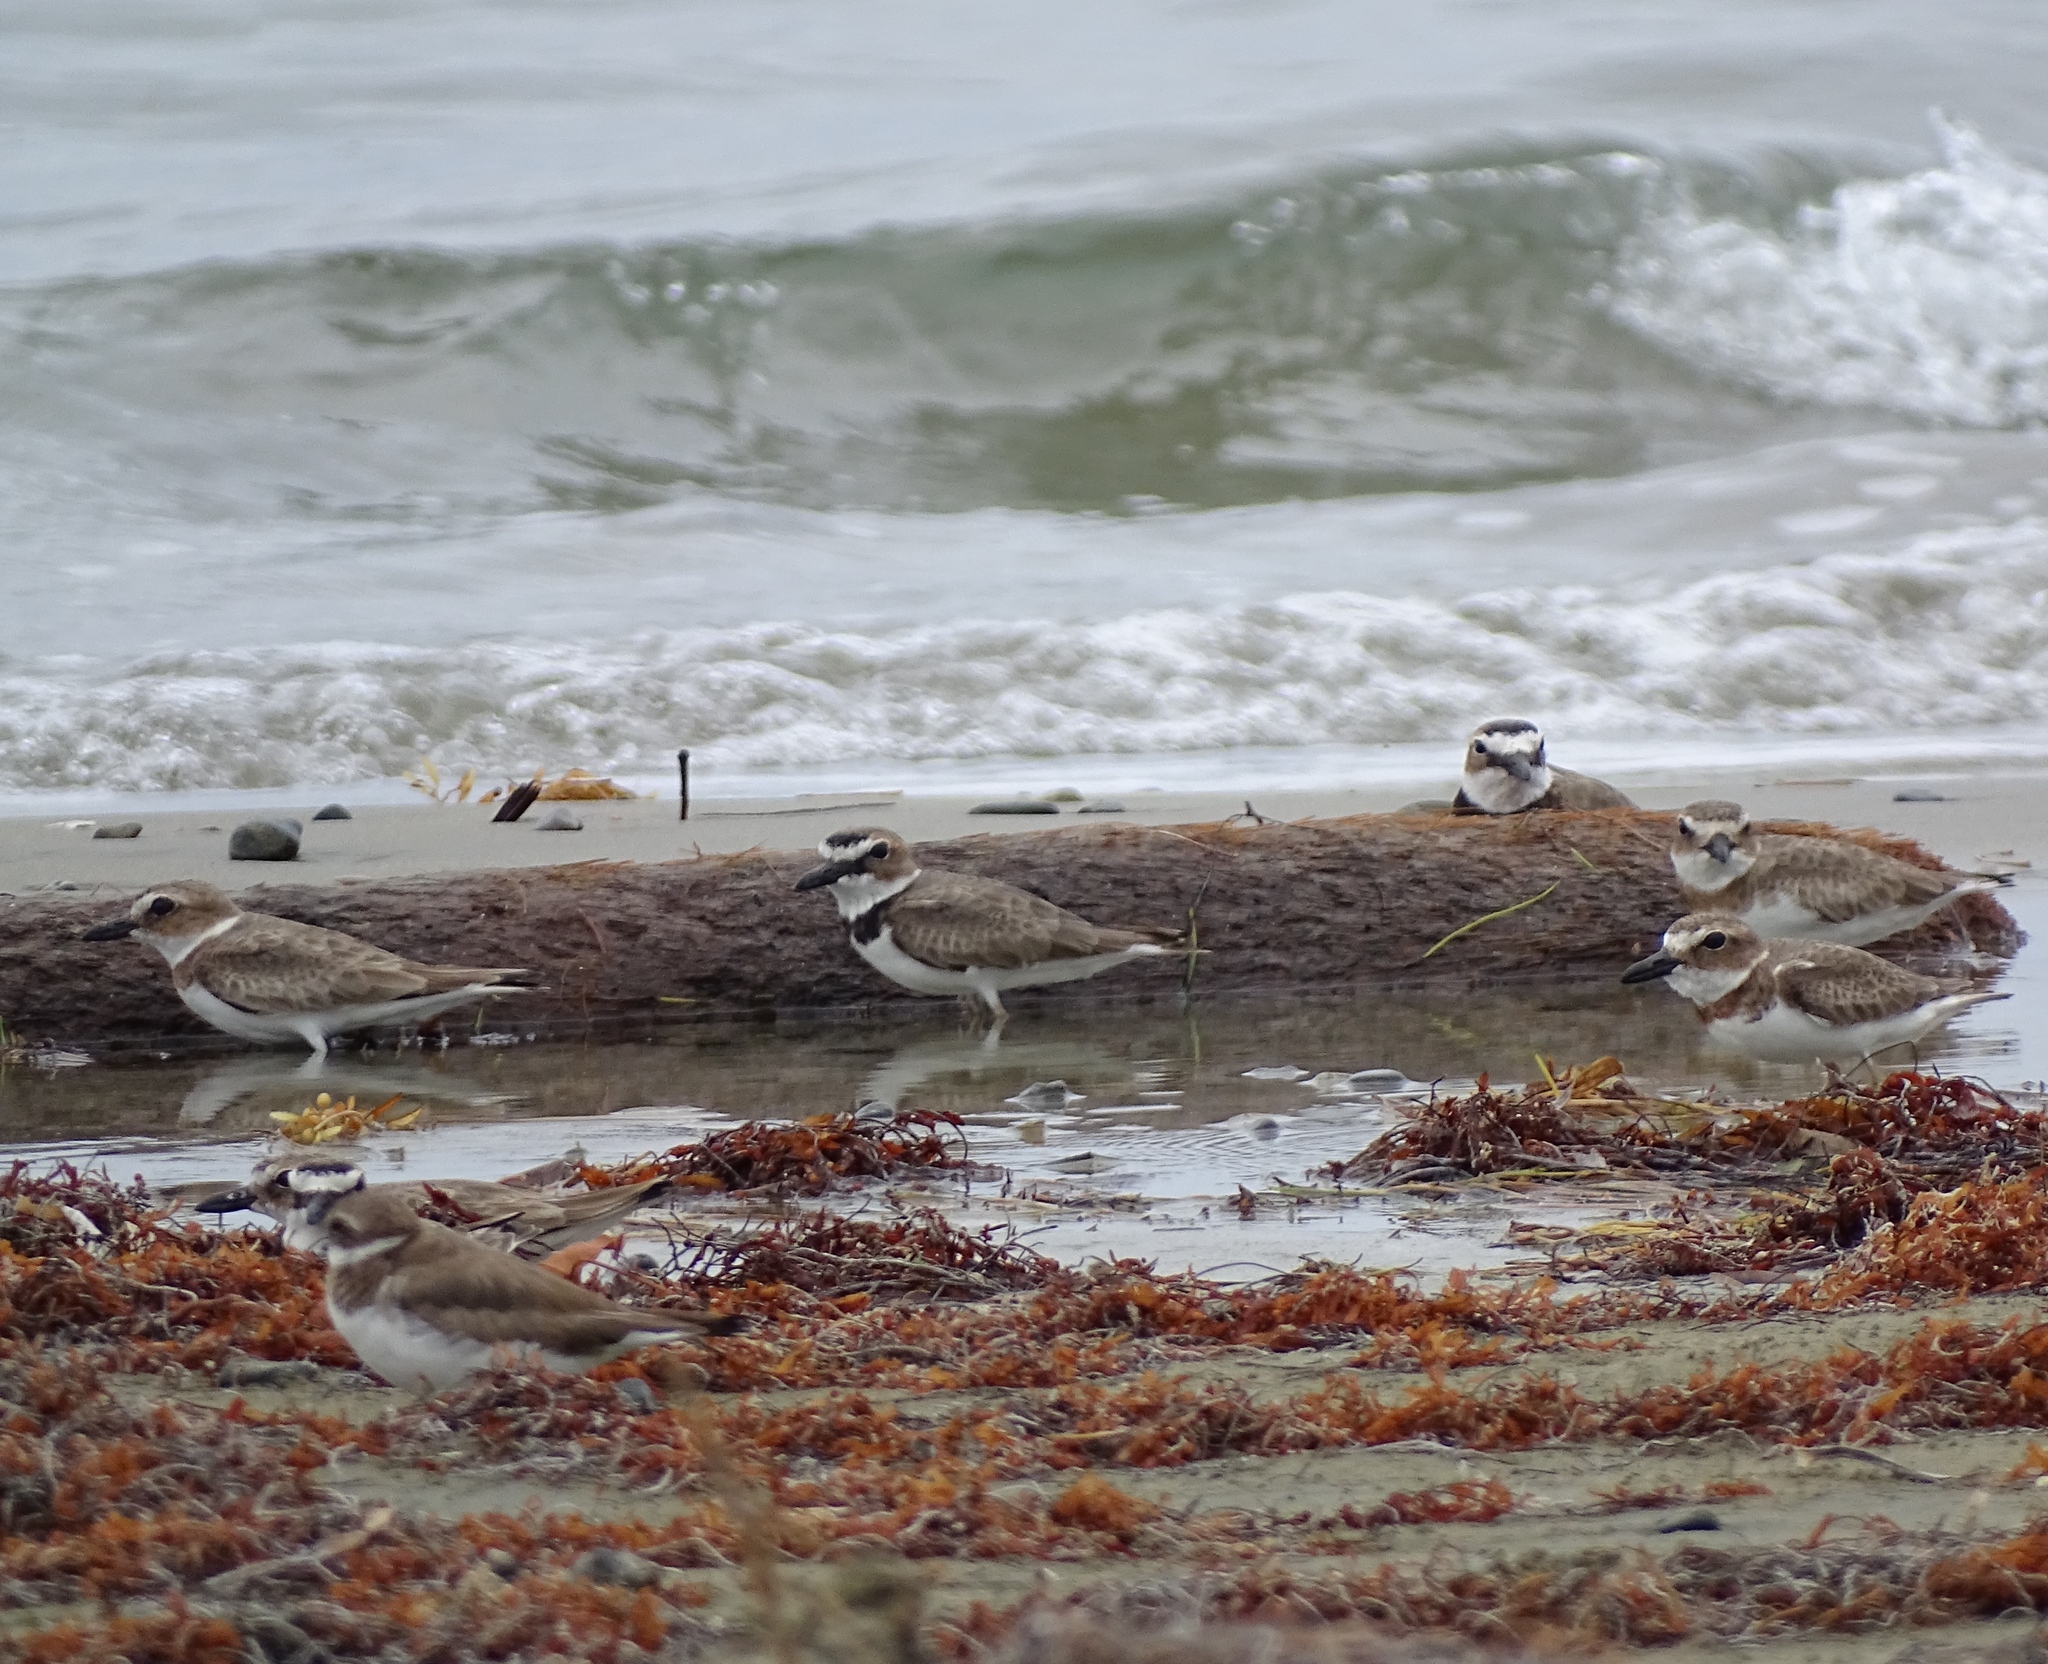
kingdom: Animalia
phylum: Chordata
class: Aves
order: Charadriiformes
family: Charadriidae
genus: Anarhynchus
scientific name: Anarhynchus
